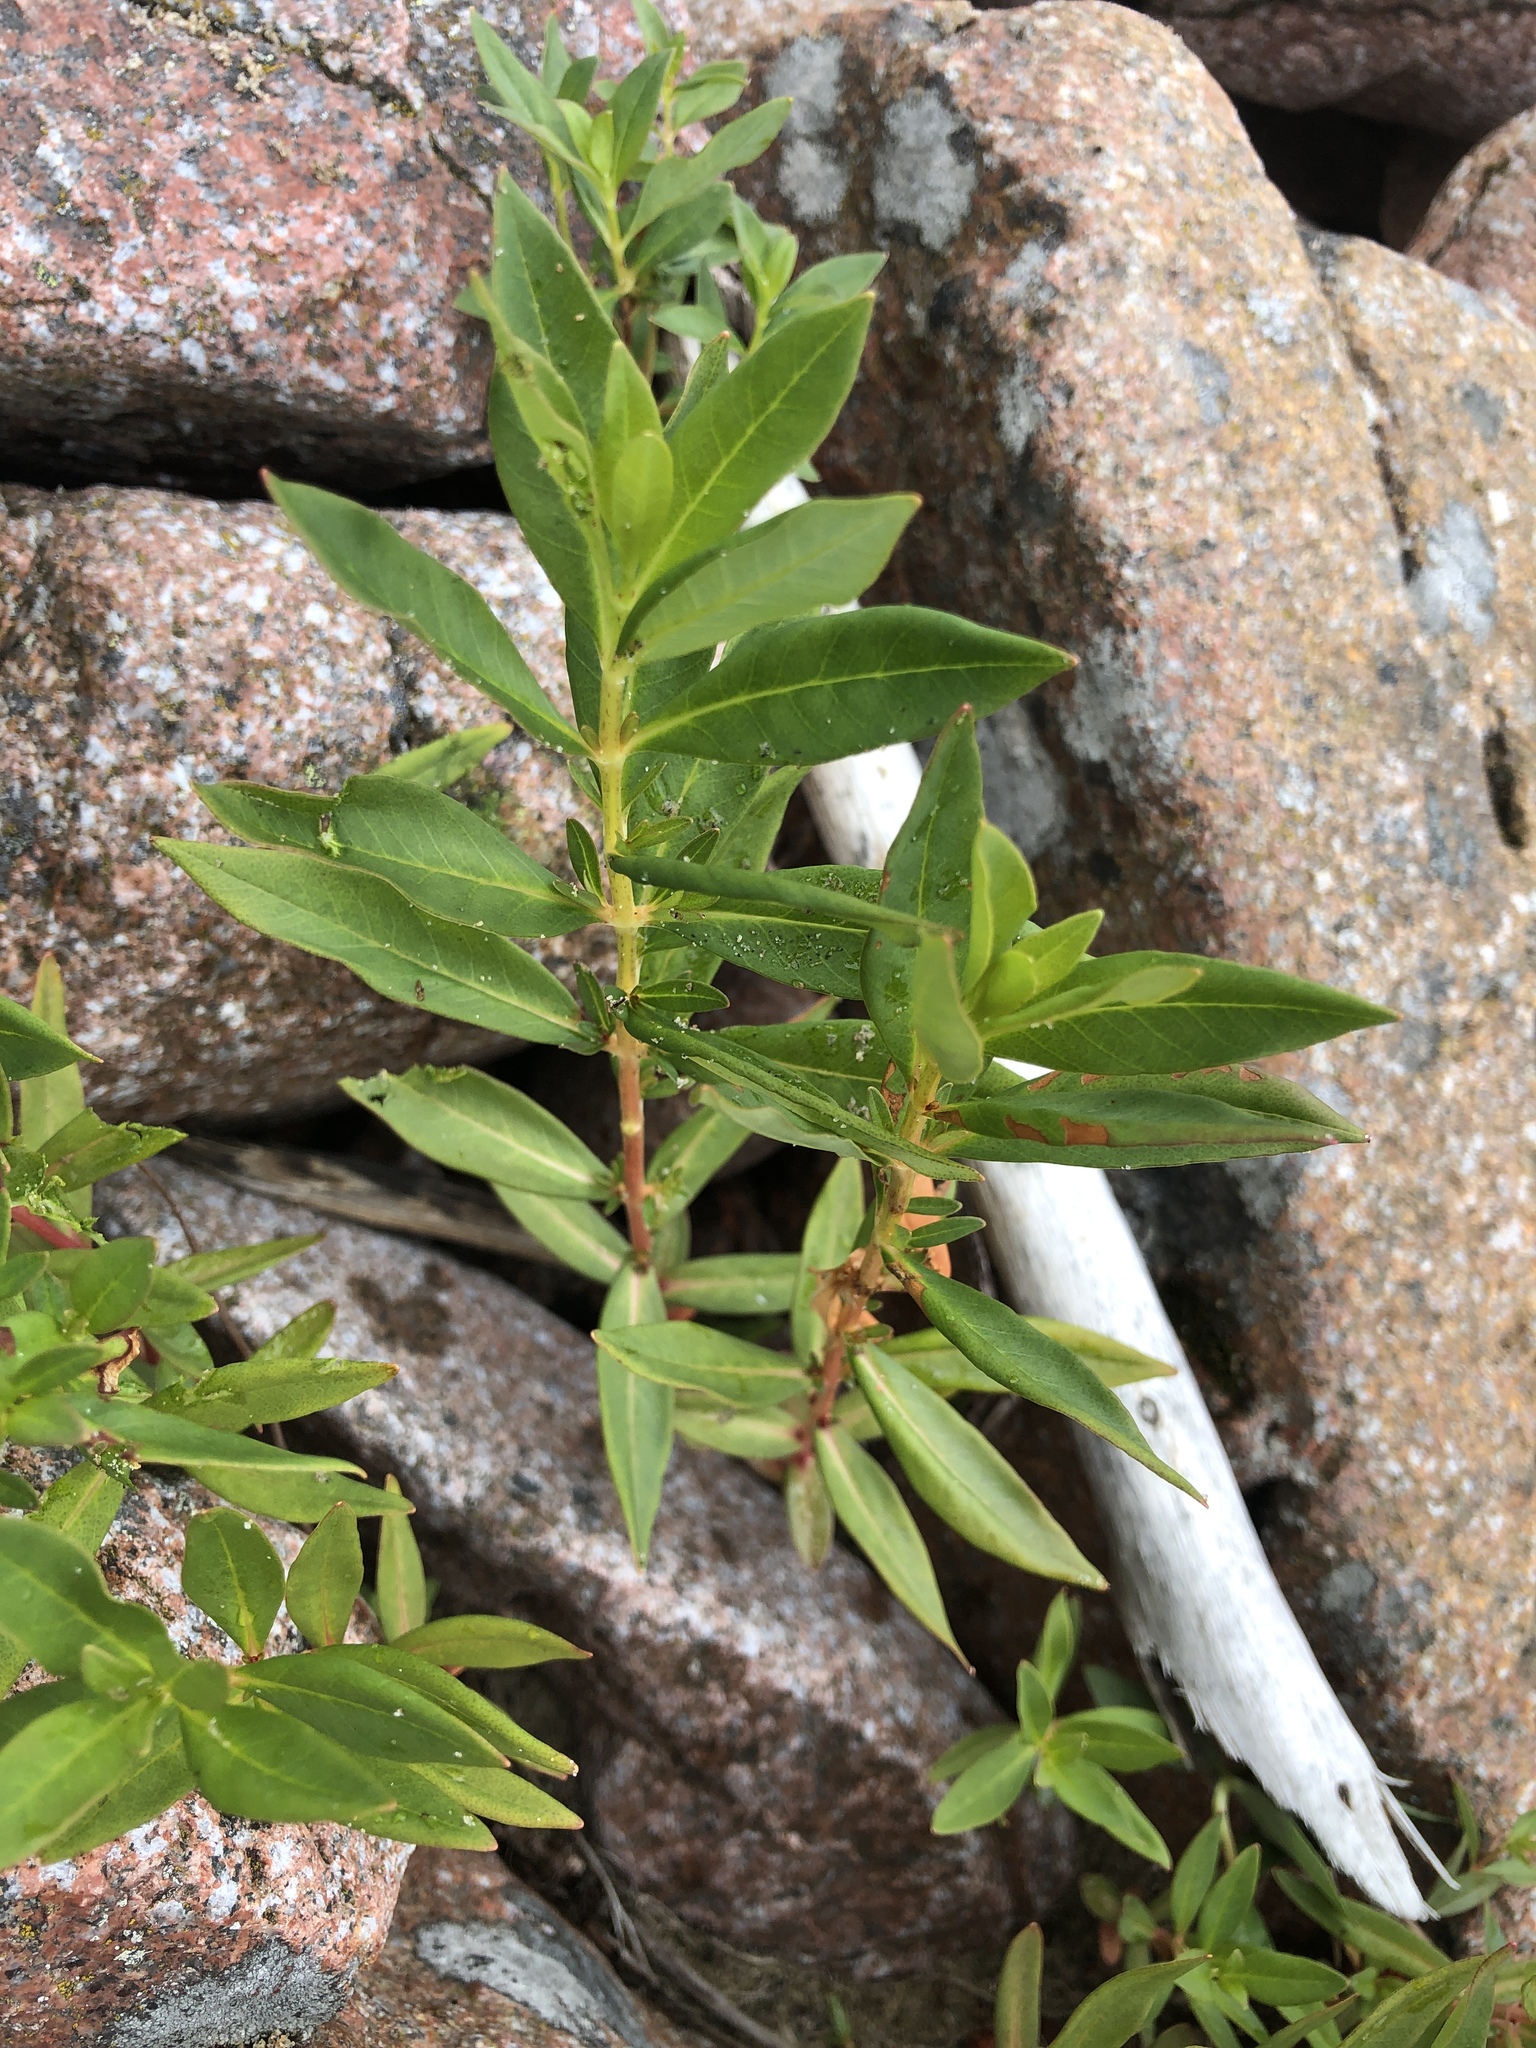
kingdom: Plantae
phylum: Tracheophyta
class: Magnoliopsida
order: Ericales
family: Primulaceae
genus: Lysimachia
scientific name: Lysimachia terrestris
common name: Lake loosestrife
